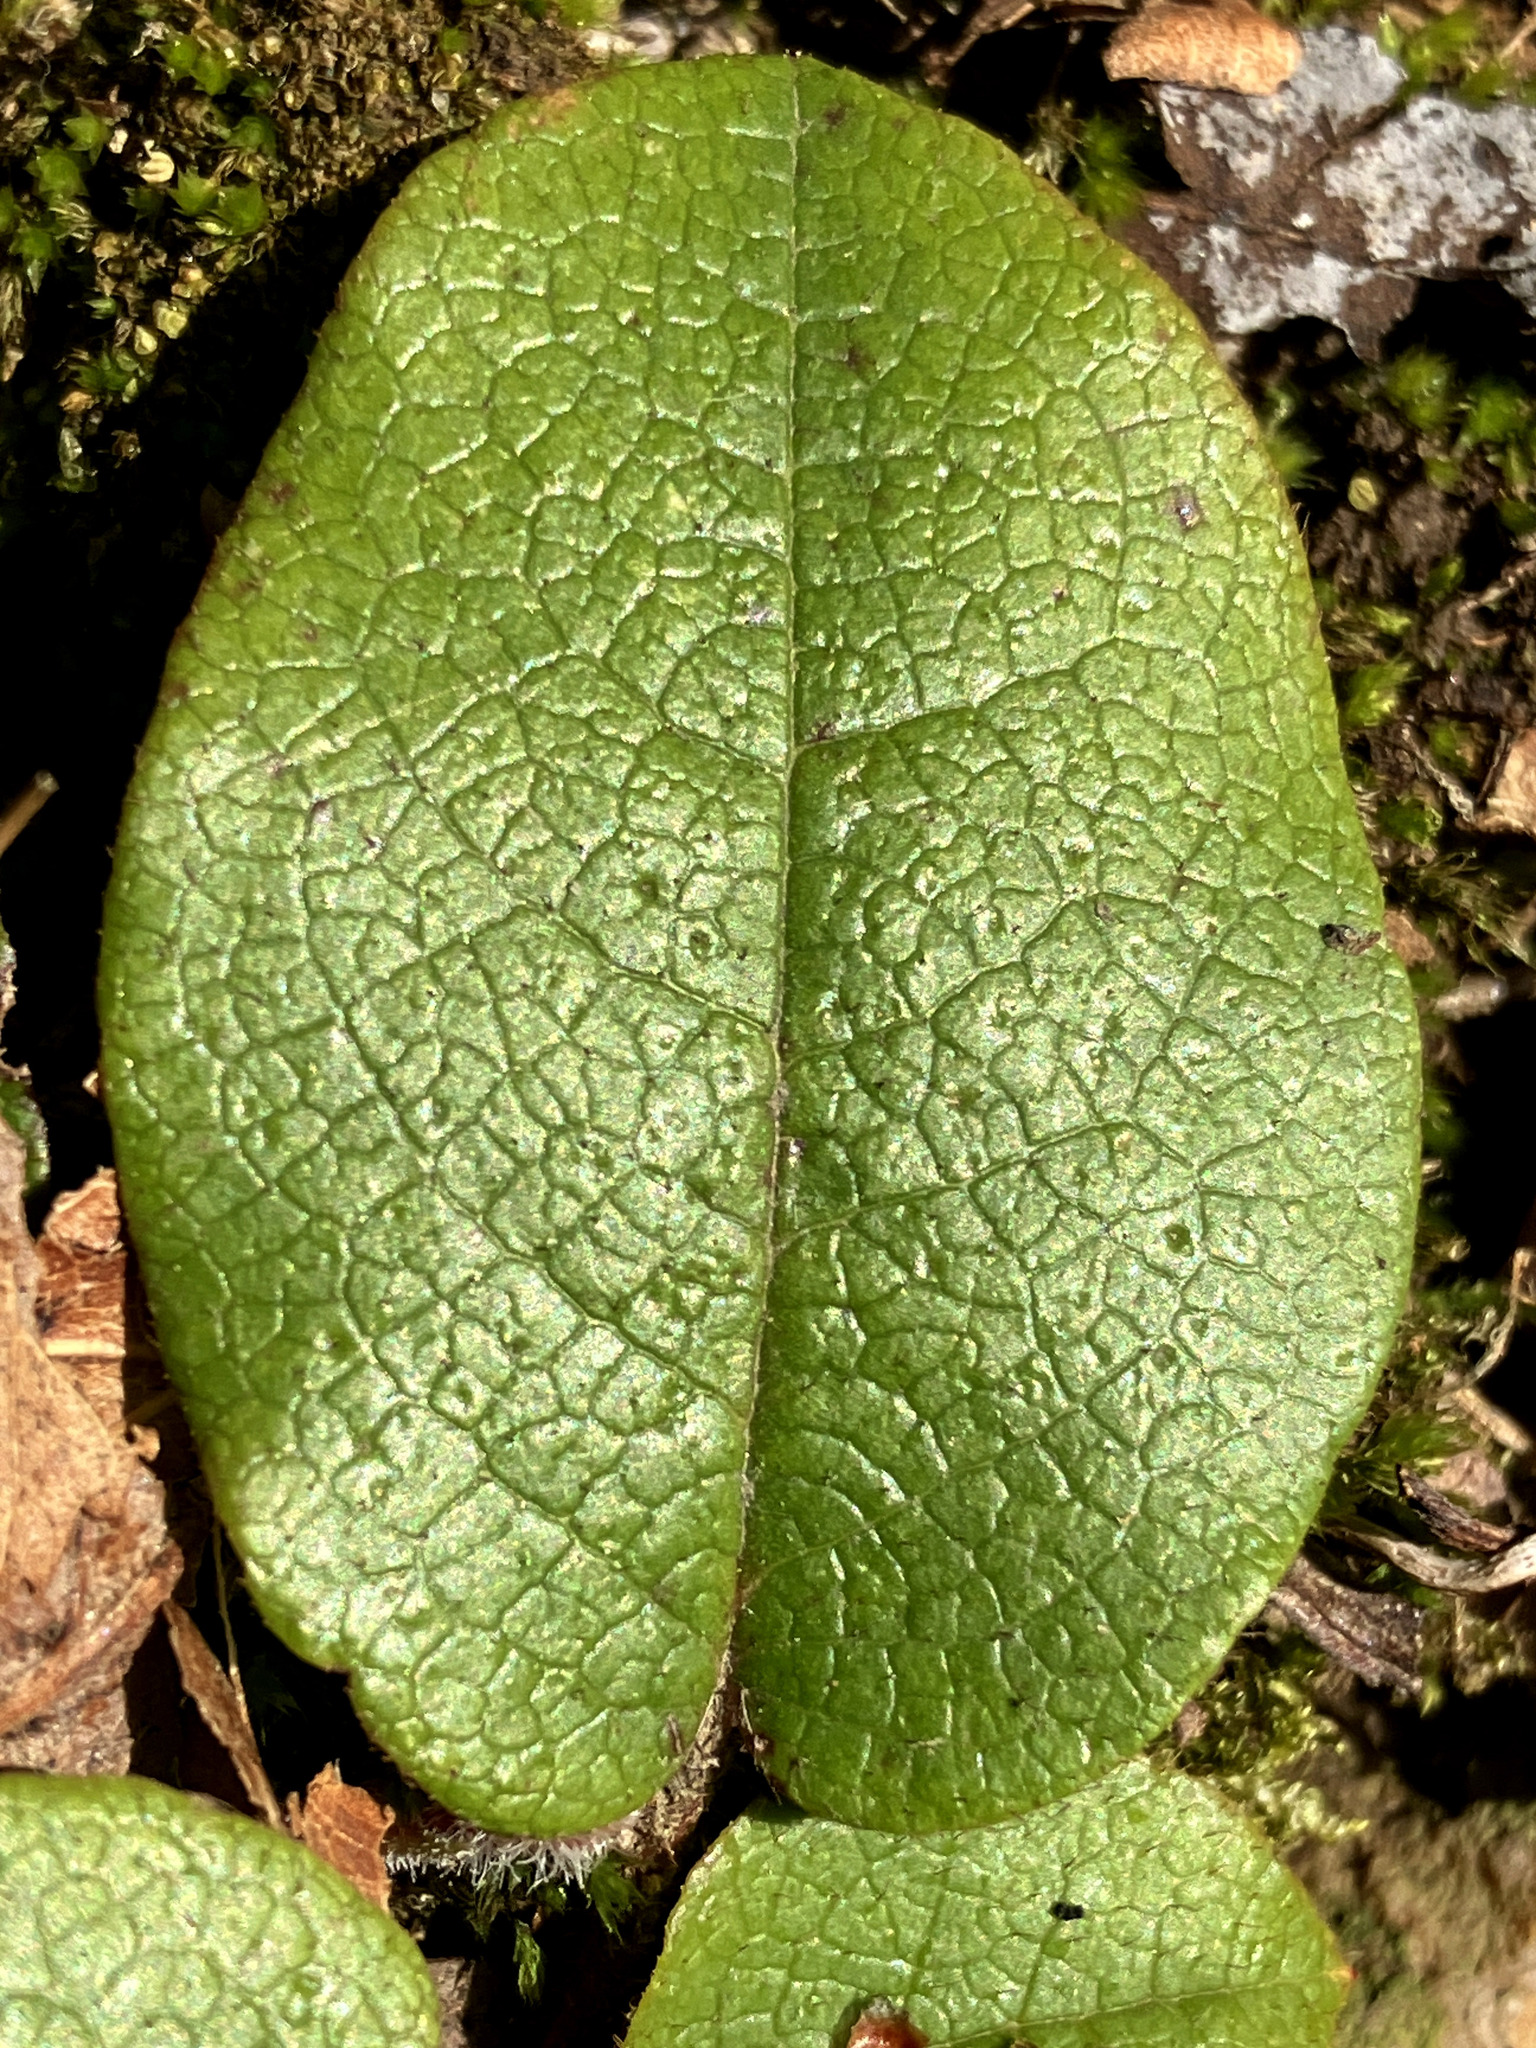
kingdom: Plantae
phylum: Tracheophyta
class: Magnoliopsida
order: Ericales
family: Ericaceae
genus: Epigaea
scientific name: Epigaea repens
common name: Gravelroot
